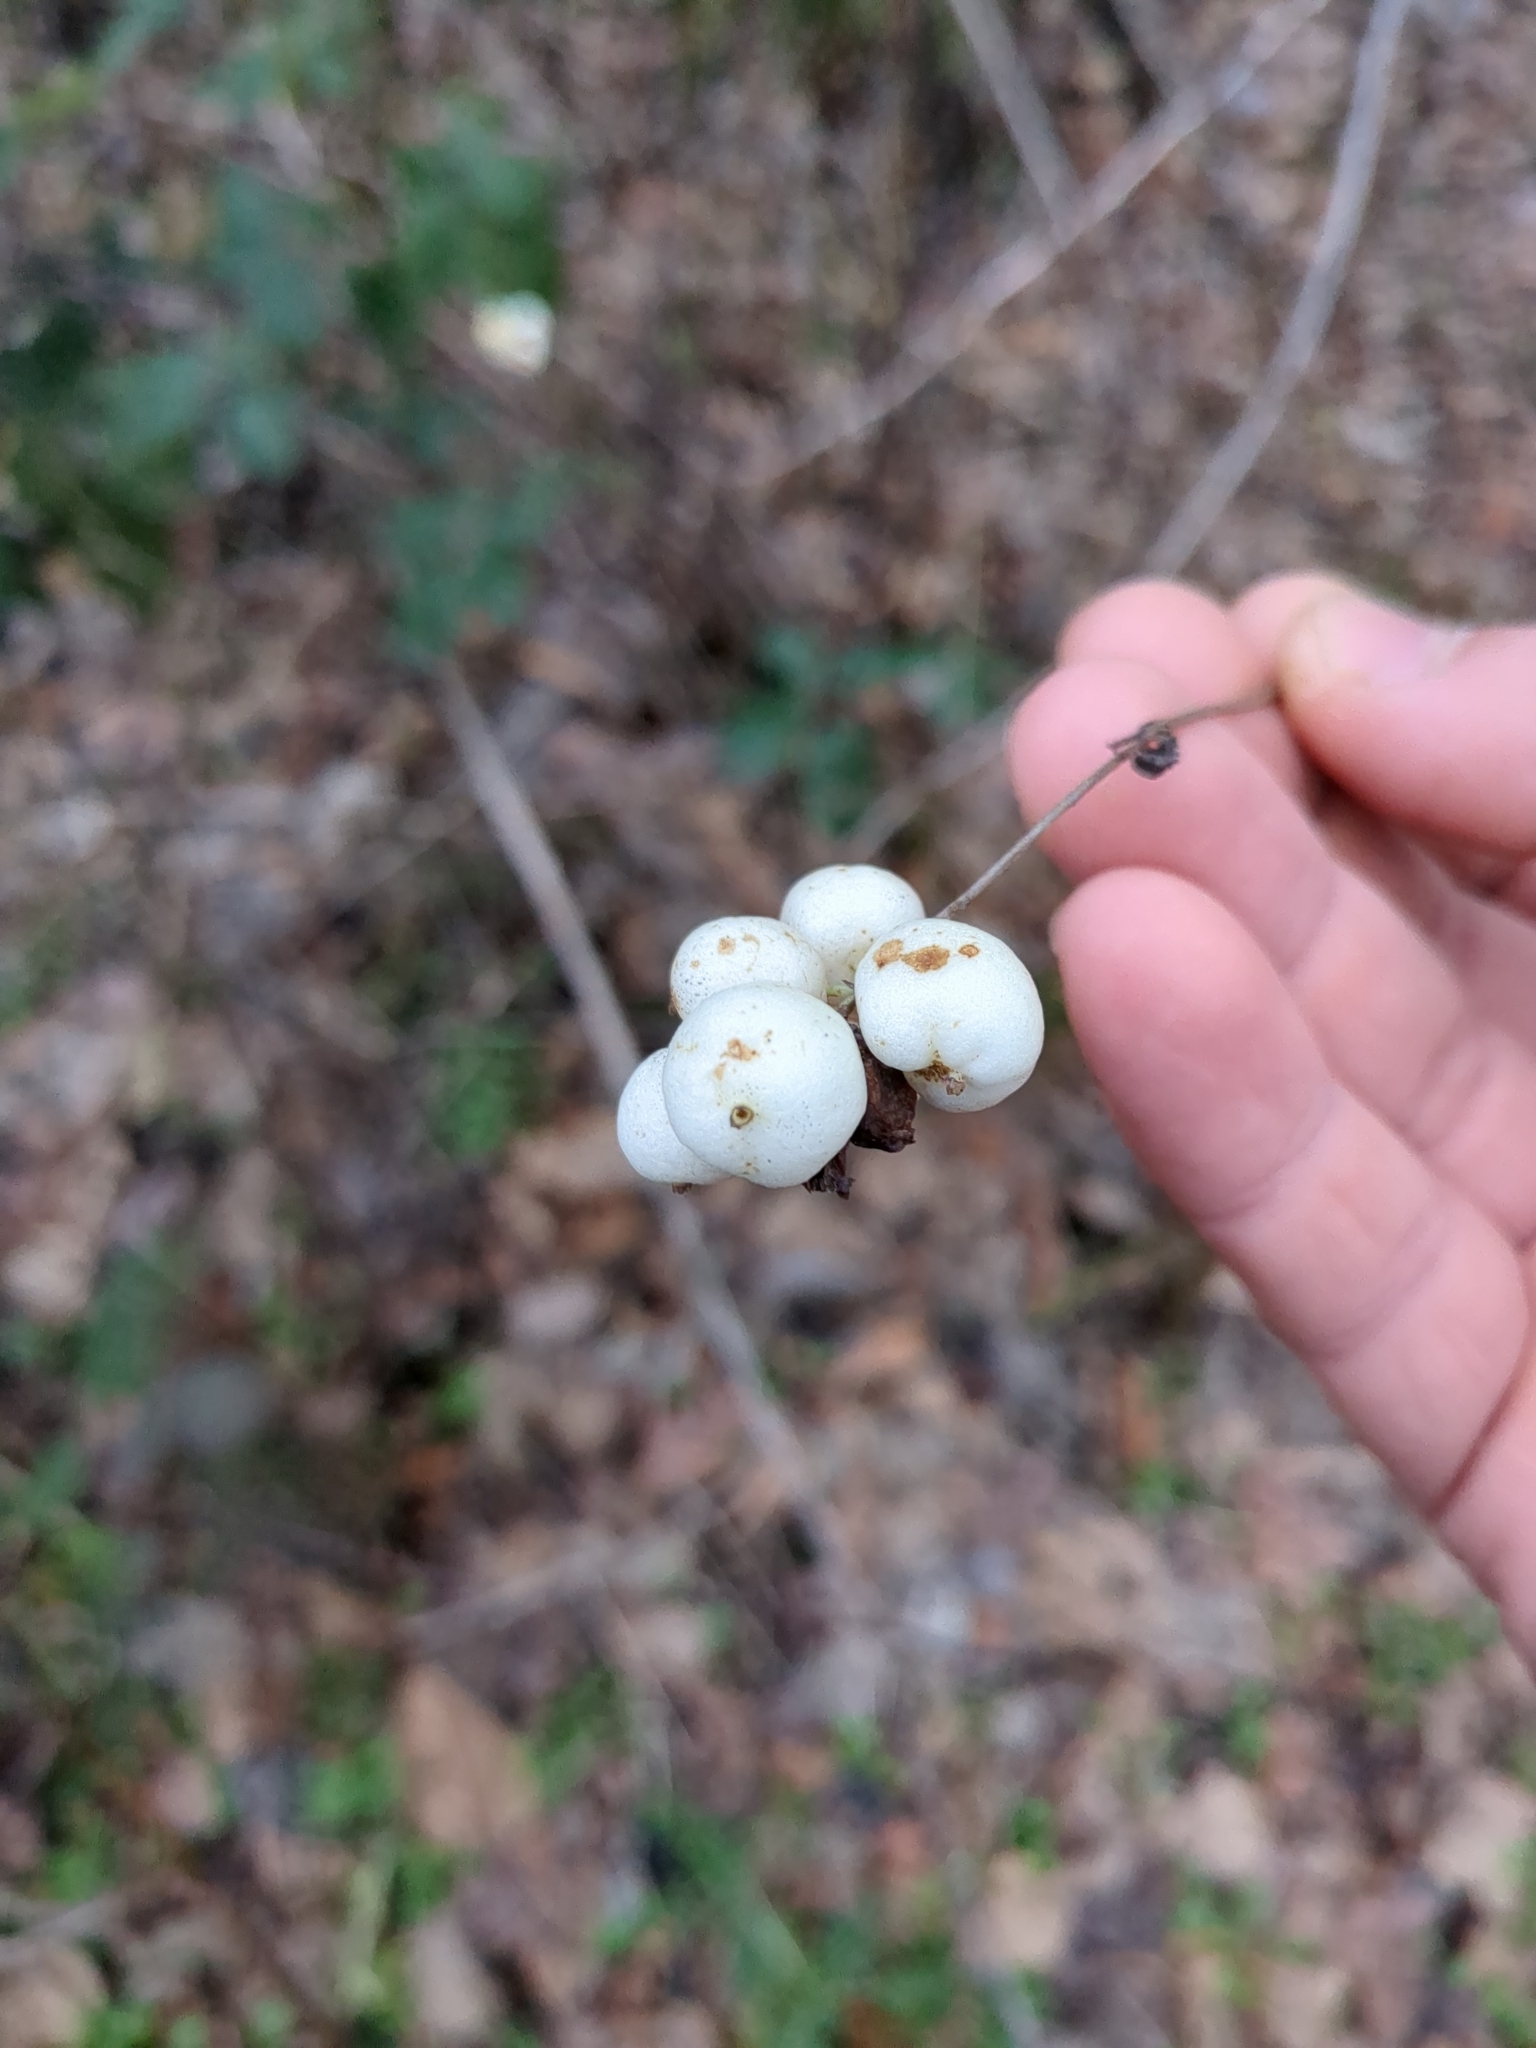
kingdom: Plantae
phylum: Tracheophyta
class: Magnoliopsida
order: Dipsacales
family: Caprifoliaceae
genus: Symphoricarpos
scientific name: Symphoricarpos albus
